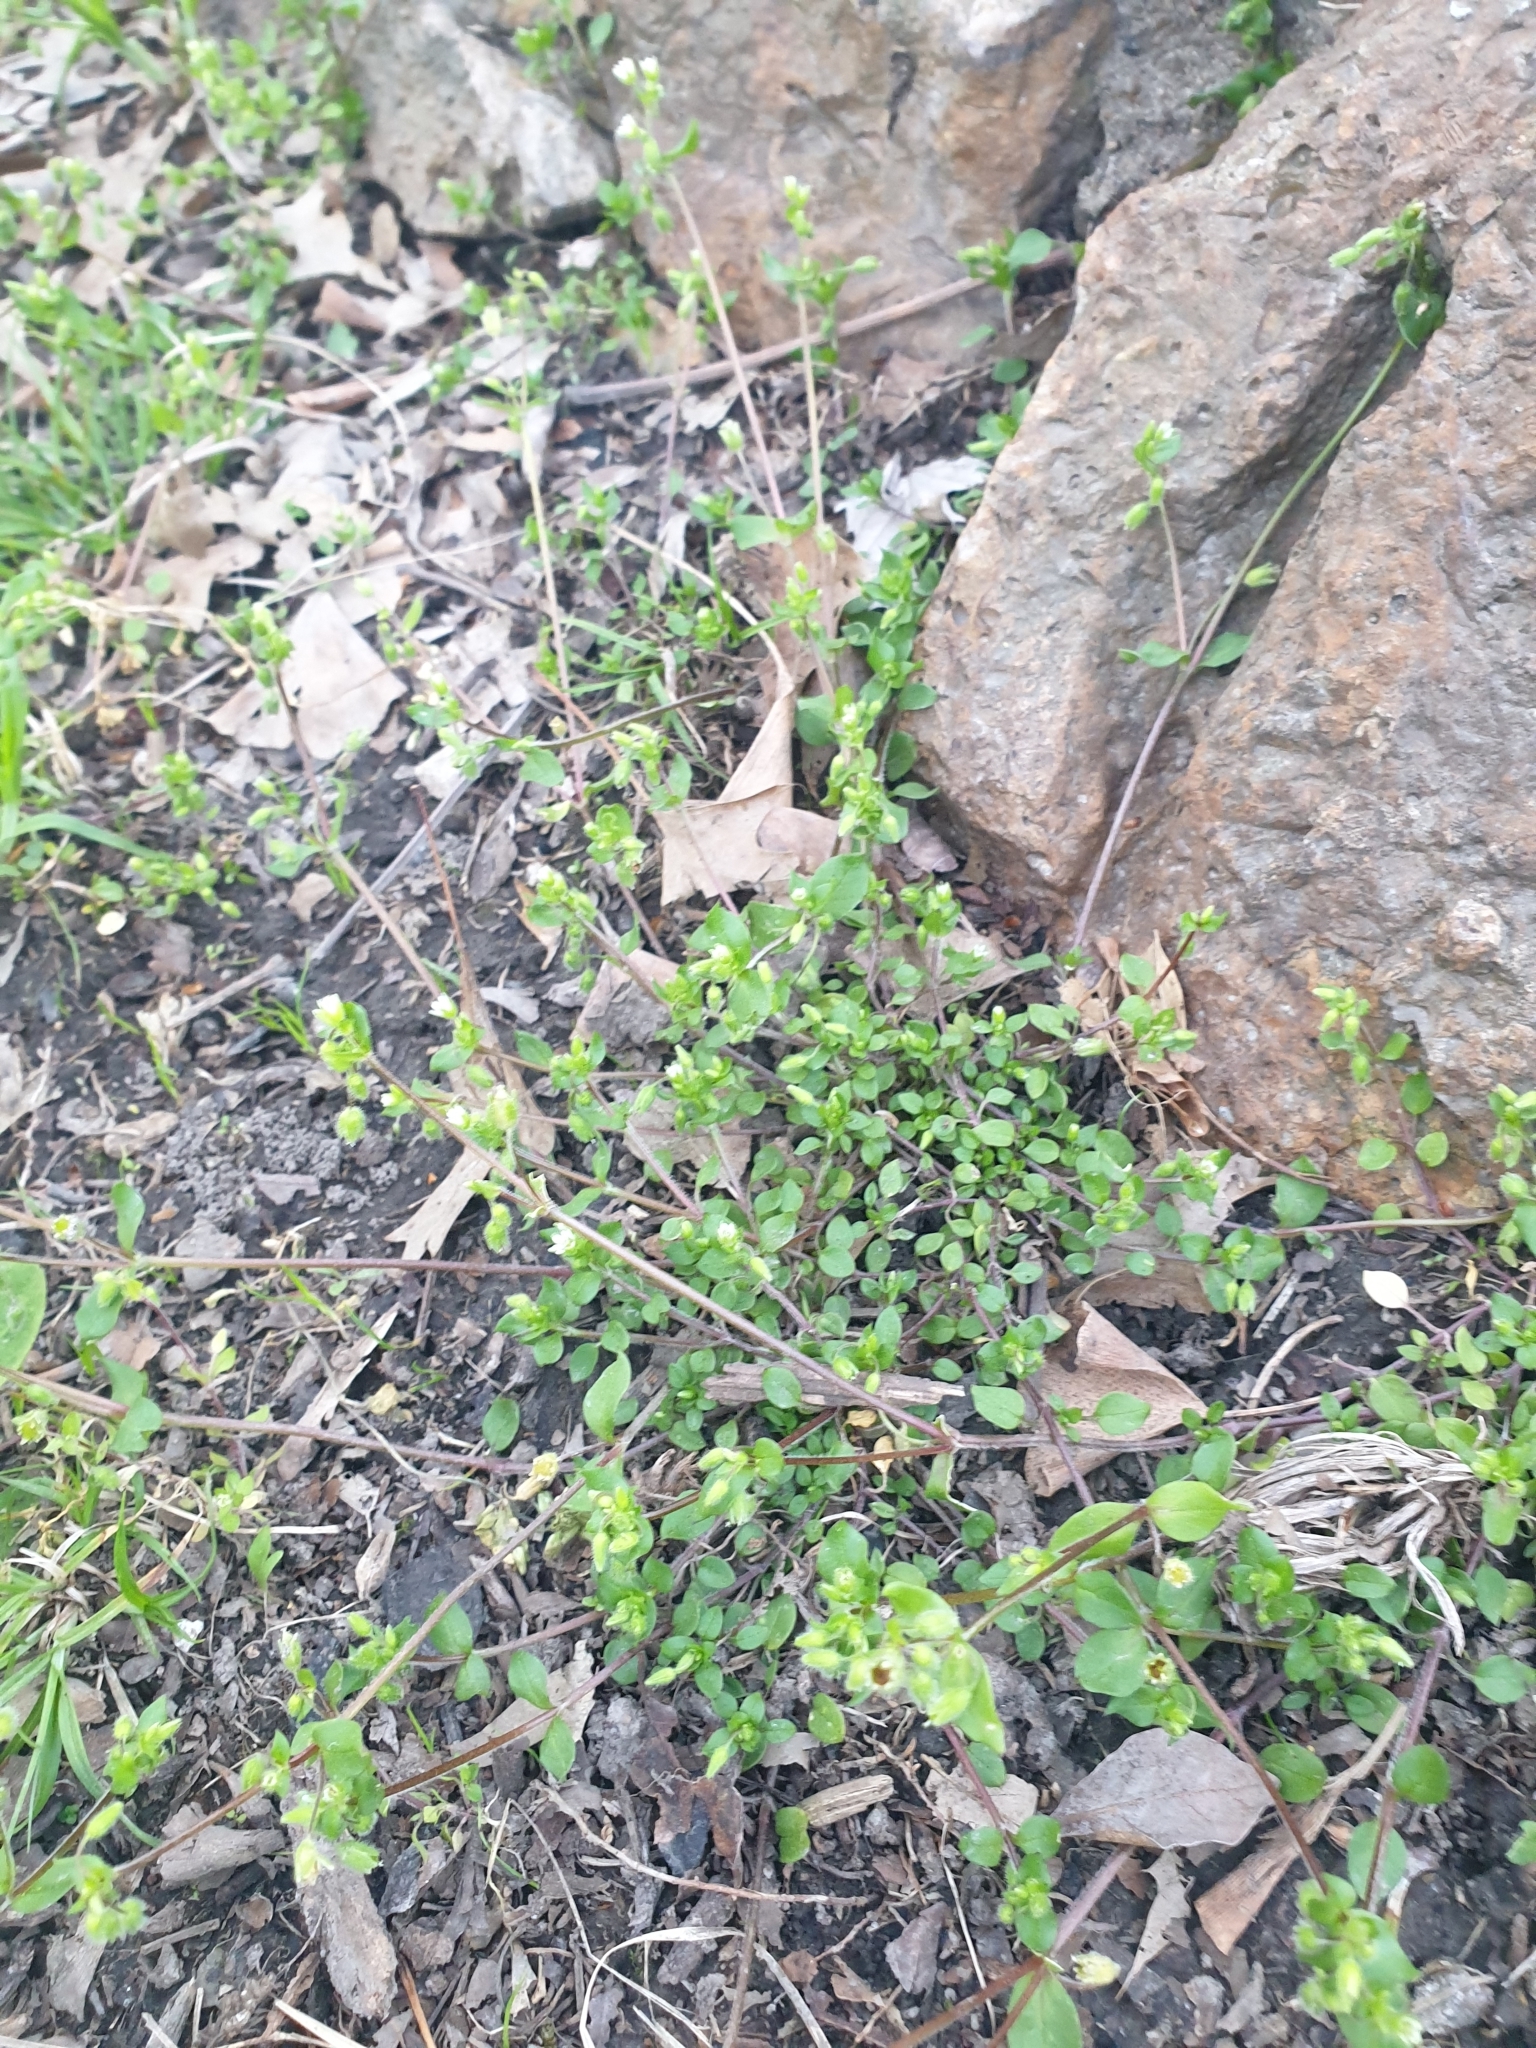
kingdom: Plantae
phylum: Tracheophyta
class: Magnoliopsida
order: Caryophyllales
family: Caryophyllaceae
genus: Arenaria
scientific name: Arenaria serpyllifolia
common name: Thyme-leaved sandwort
